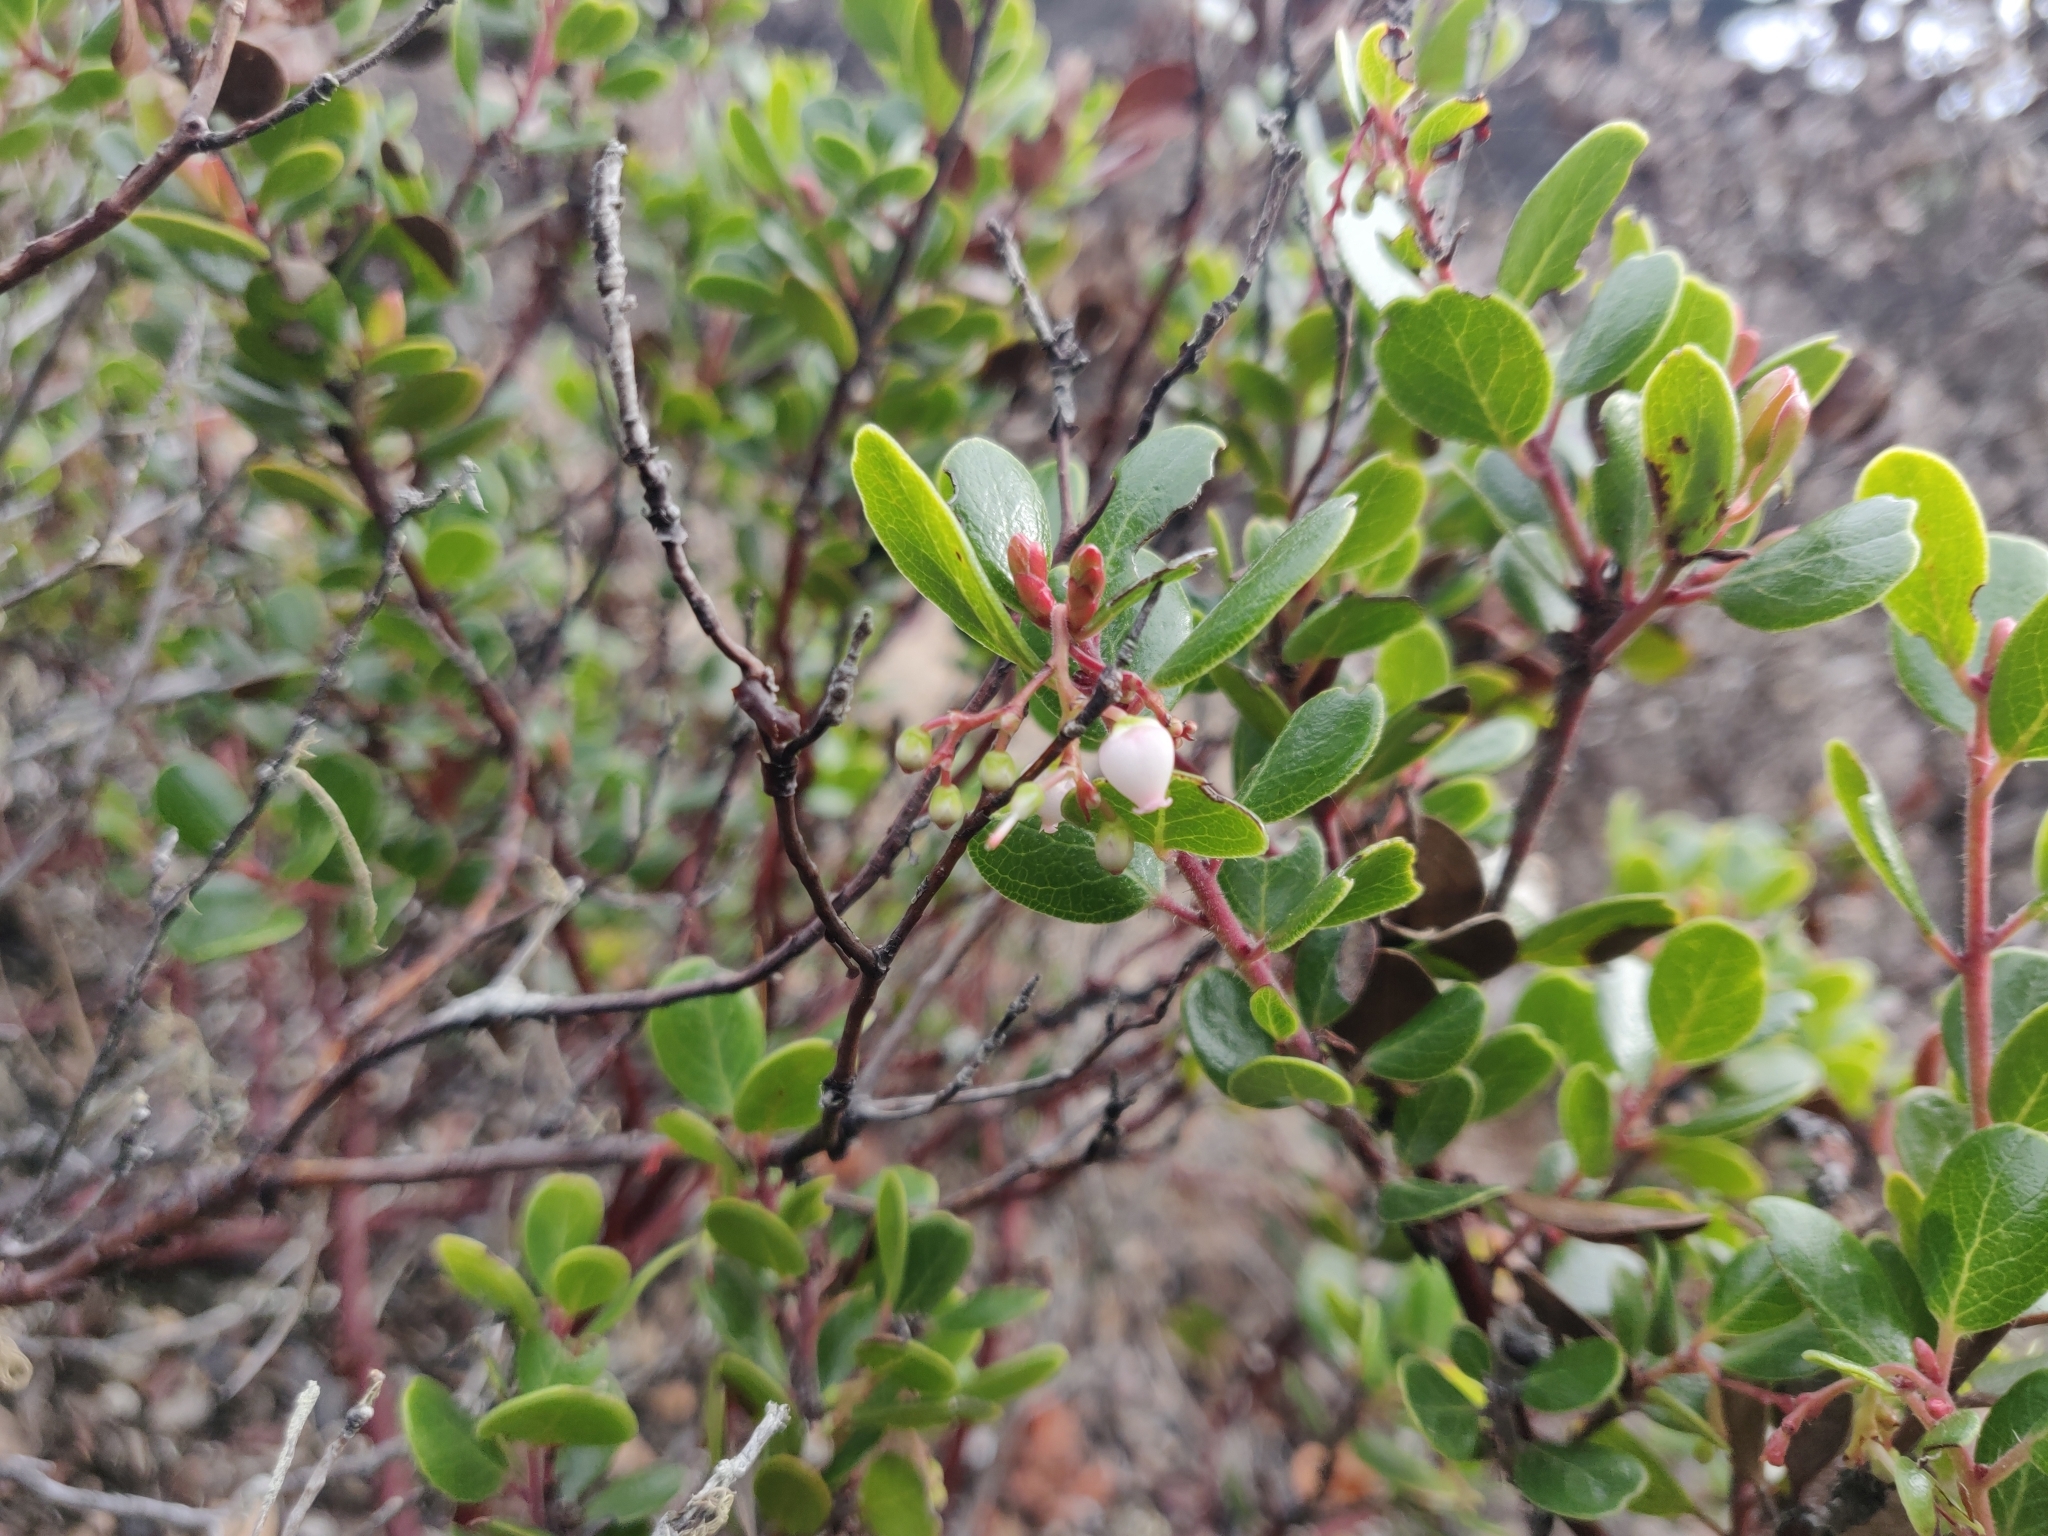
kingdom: Plantae
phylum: Tracheophyta
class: Magnoliopsida
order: Ericales
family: Ericaceae
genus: Arctostaphylos
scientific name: Arctostaphylos nummularia
